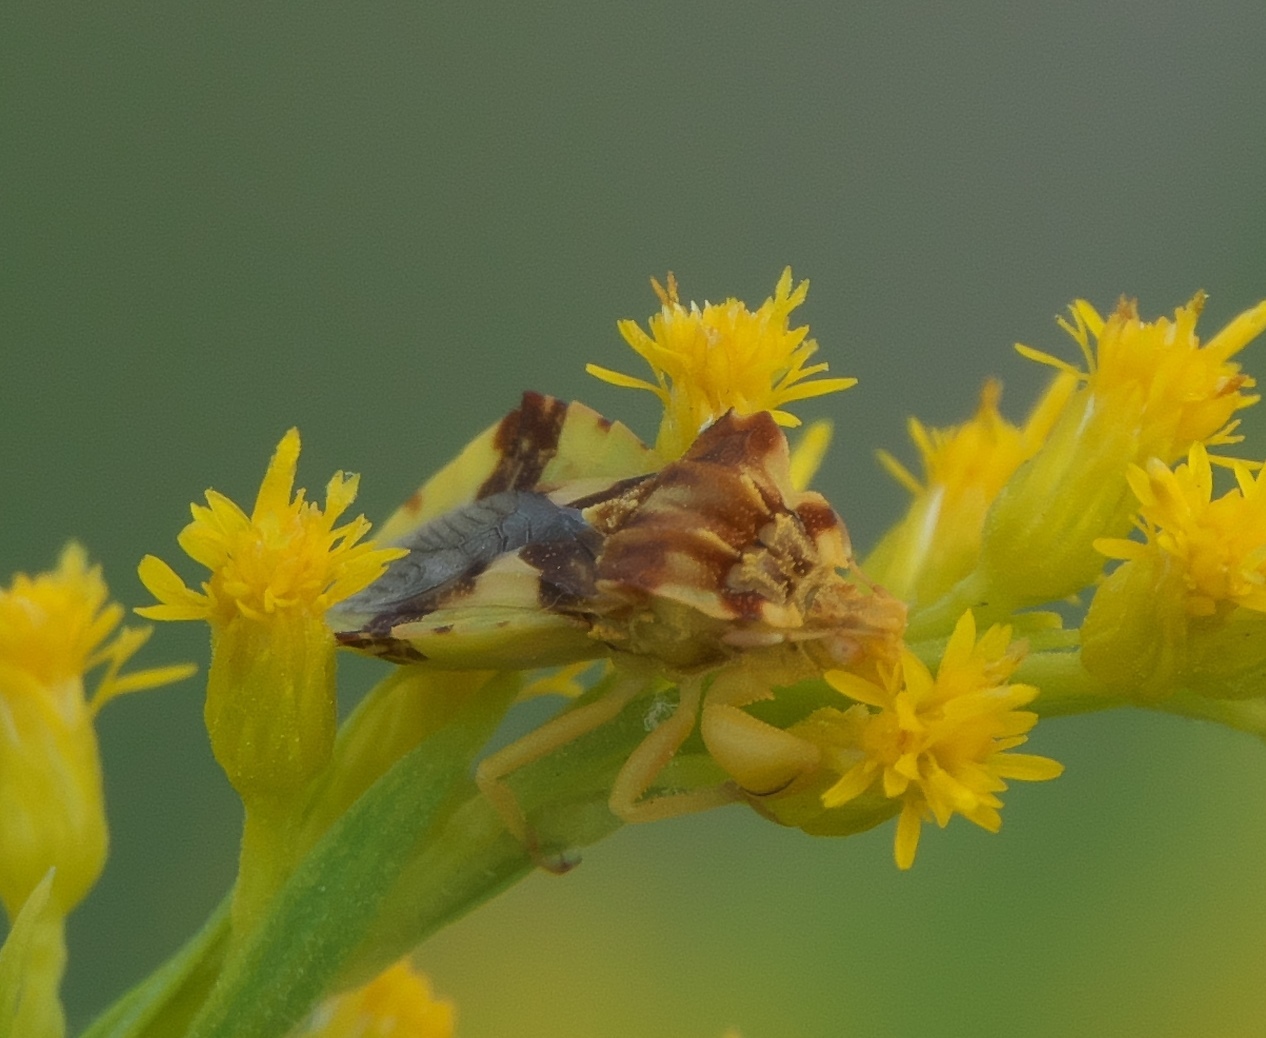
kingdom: Animalia
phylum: Arthropoda
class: Insecta
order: Hemiptera
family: Reduviidae
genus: Phymata
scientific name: Phymata americana
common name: Jagged ambush bug
